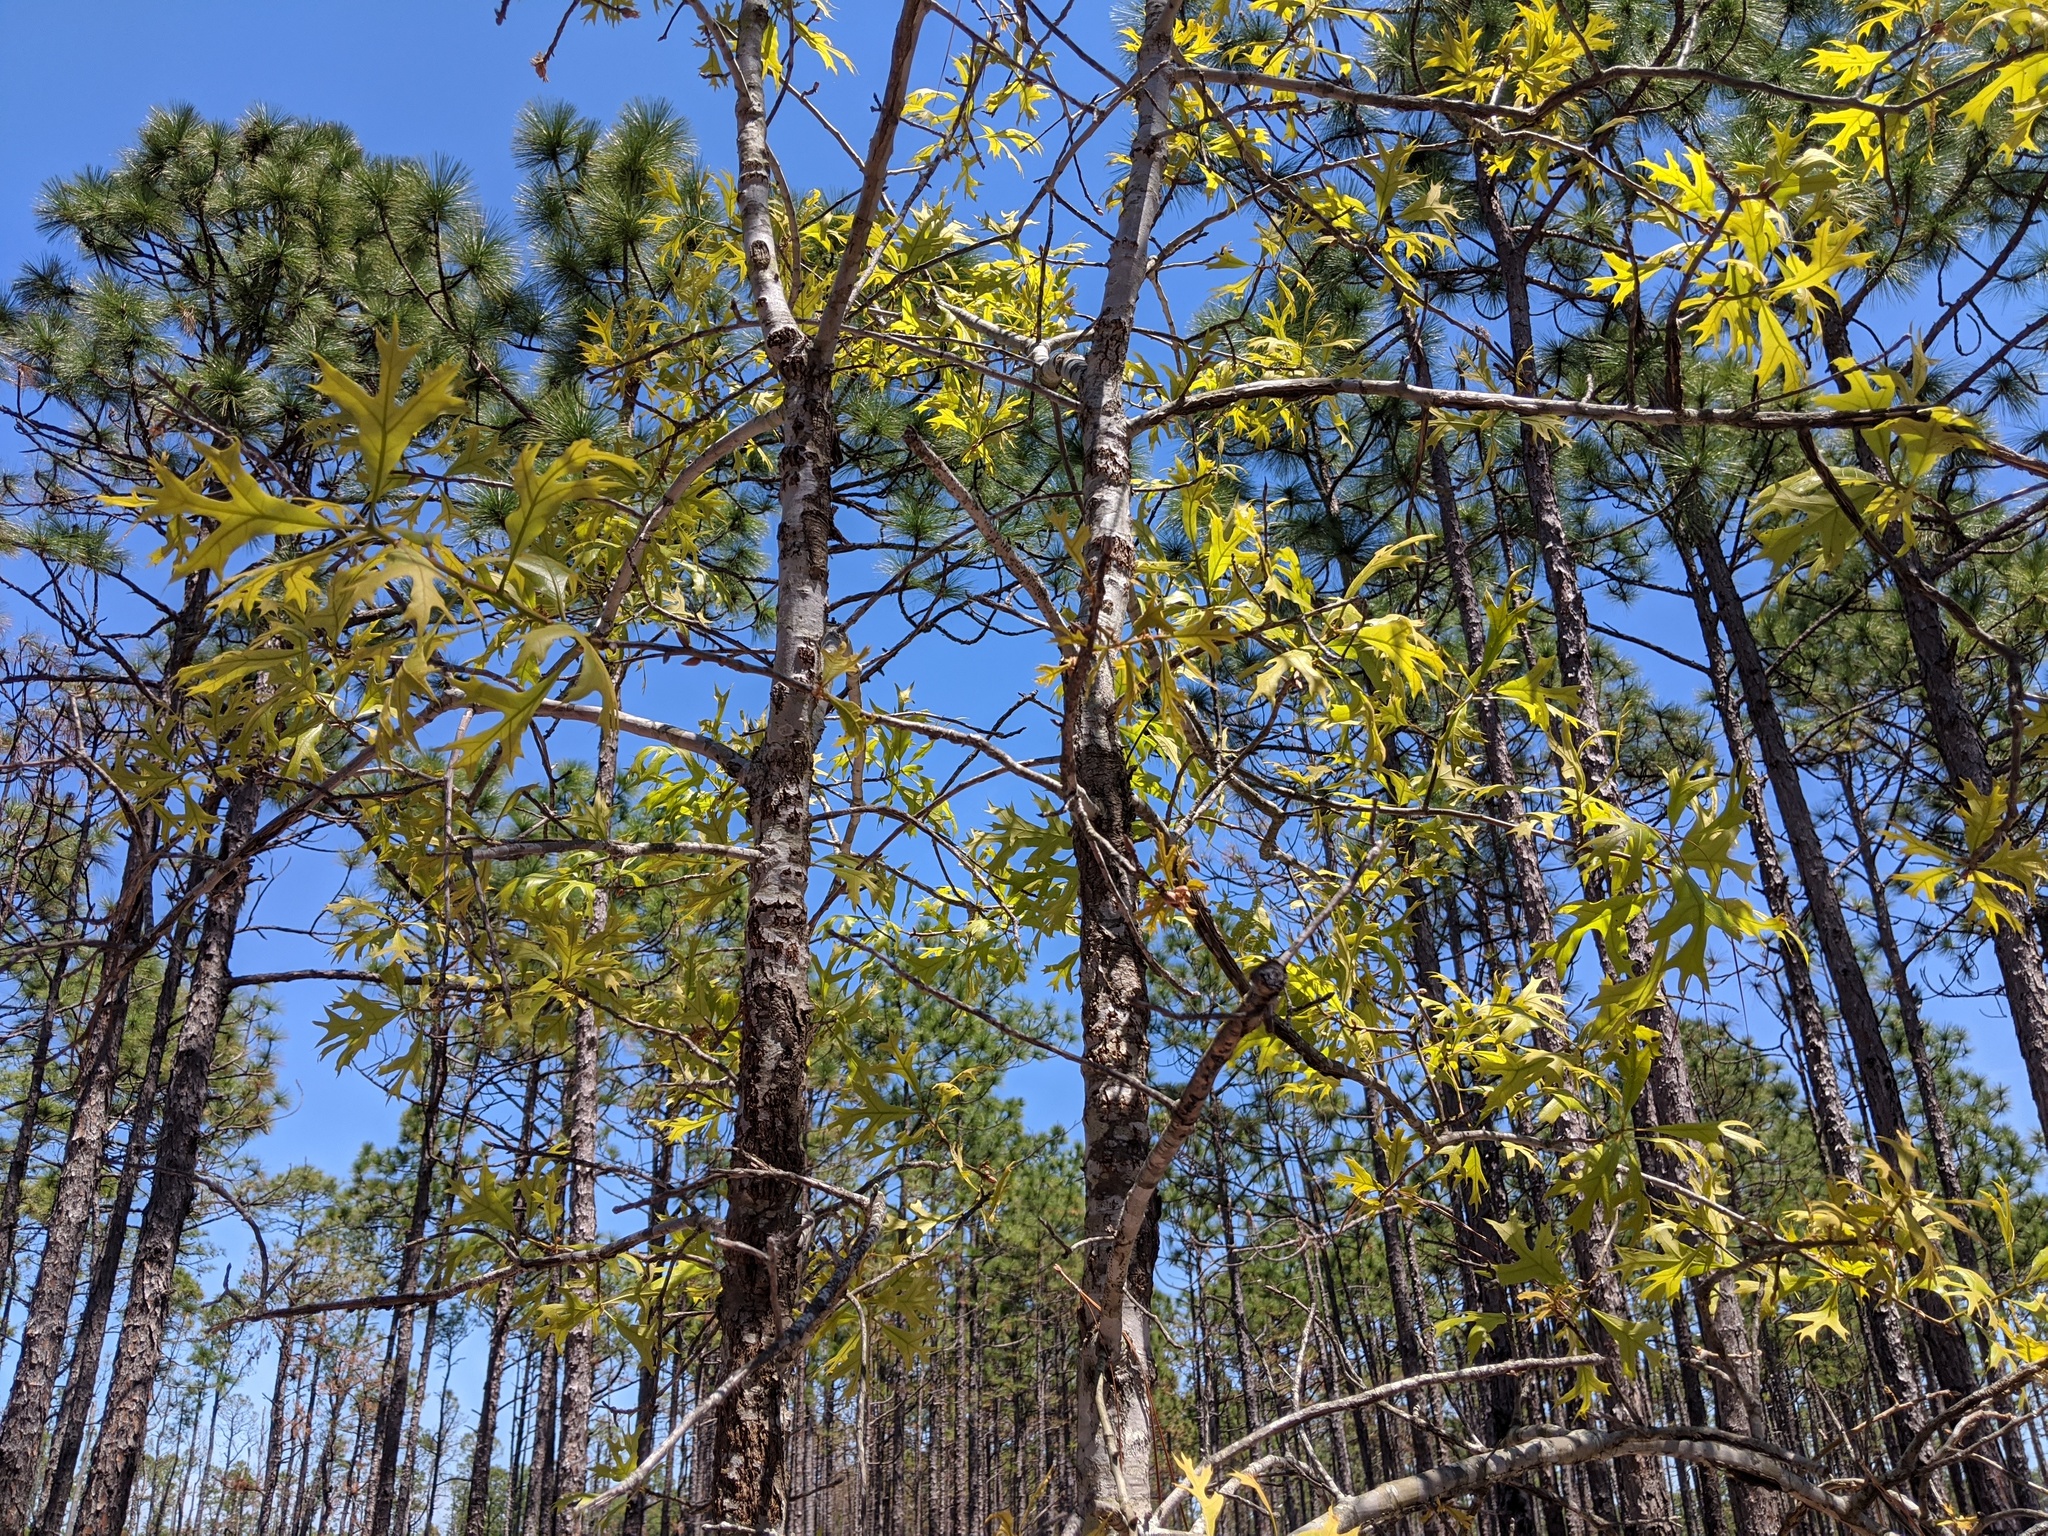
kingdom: Plantae
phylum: Tracheophyta
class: Magnoliopsida
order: Fagales
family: Fagaceae
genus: Quercus
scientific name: Quercus laevis
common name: Turkey oak
